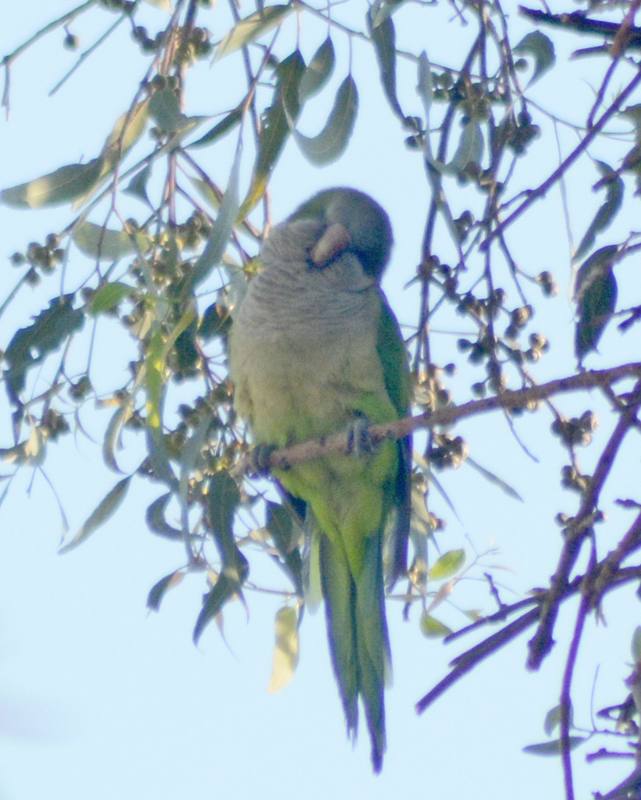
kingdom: Animalia
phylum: Chordata
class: Aves
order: Psittaciformes
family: Psittacidae
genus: Myiopsitta
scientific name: Myiopsitta monachus
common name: Monk parakeet
